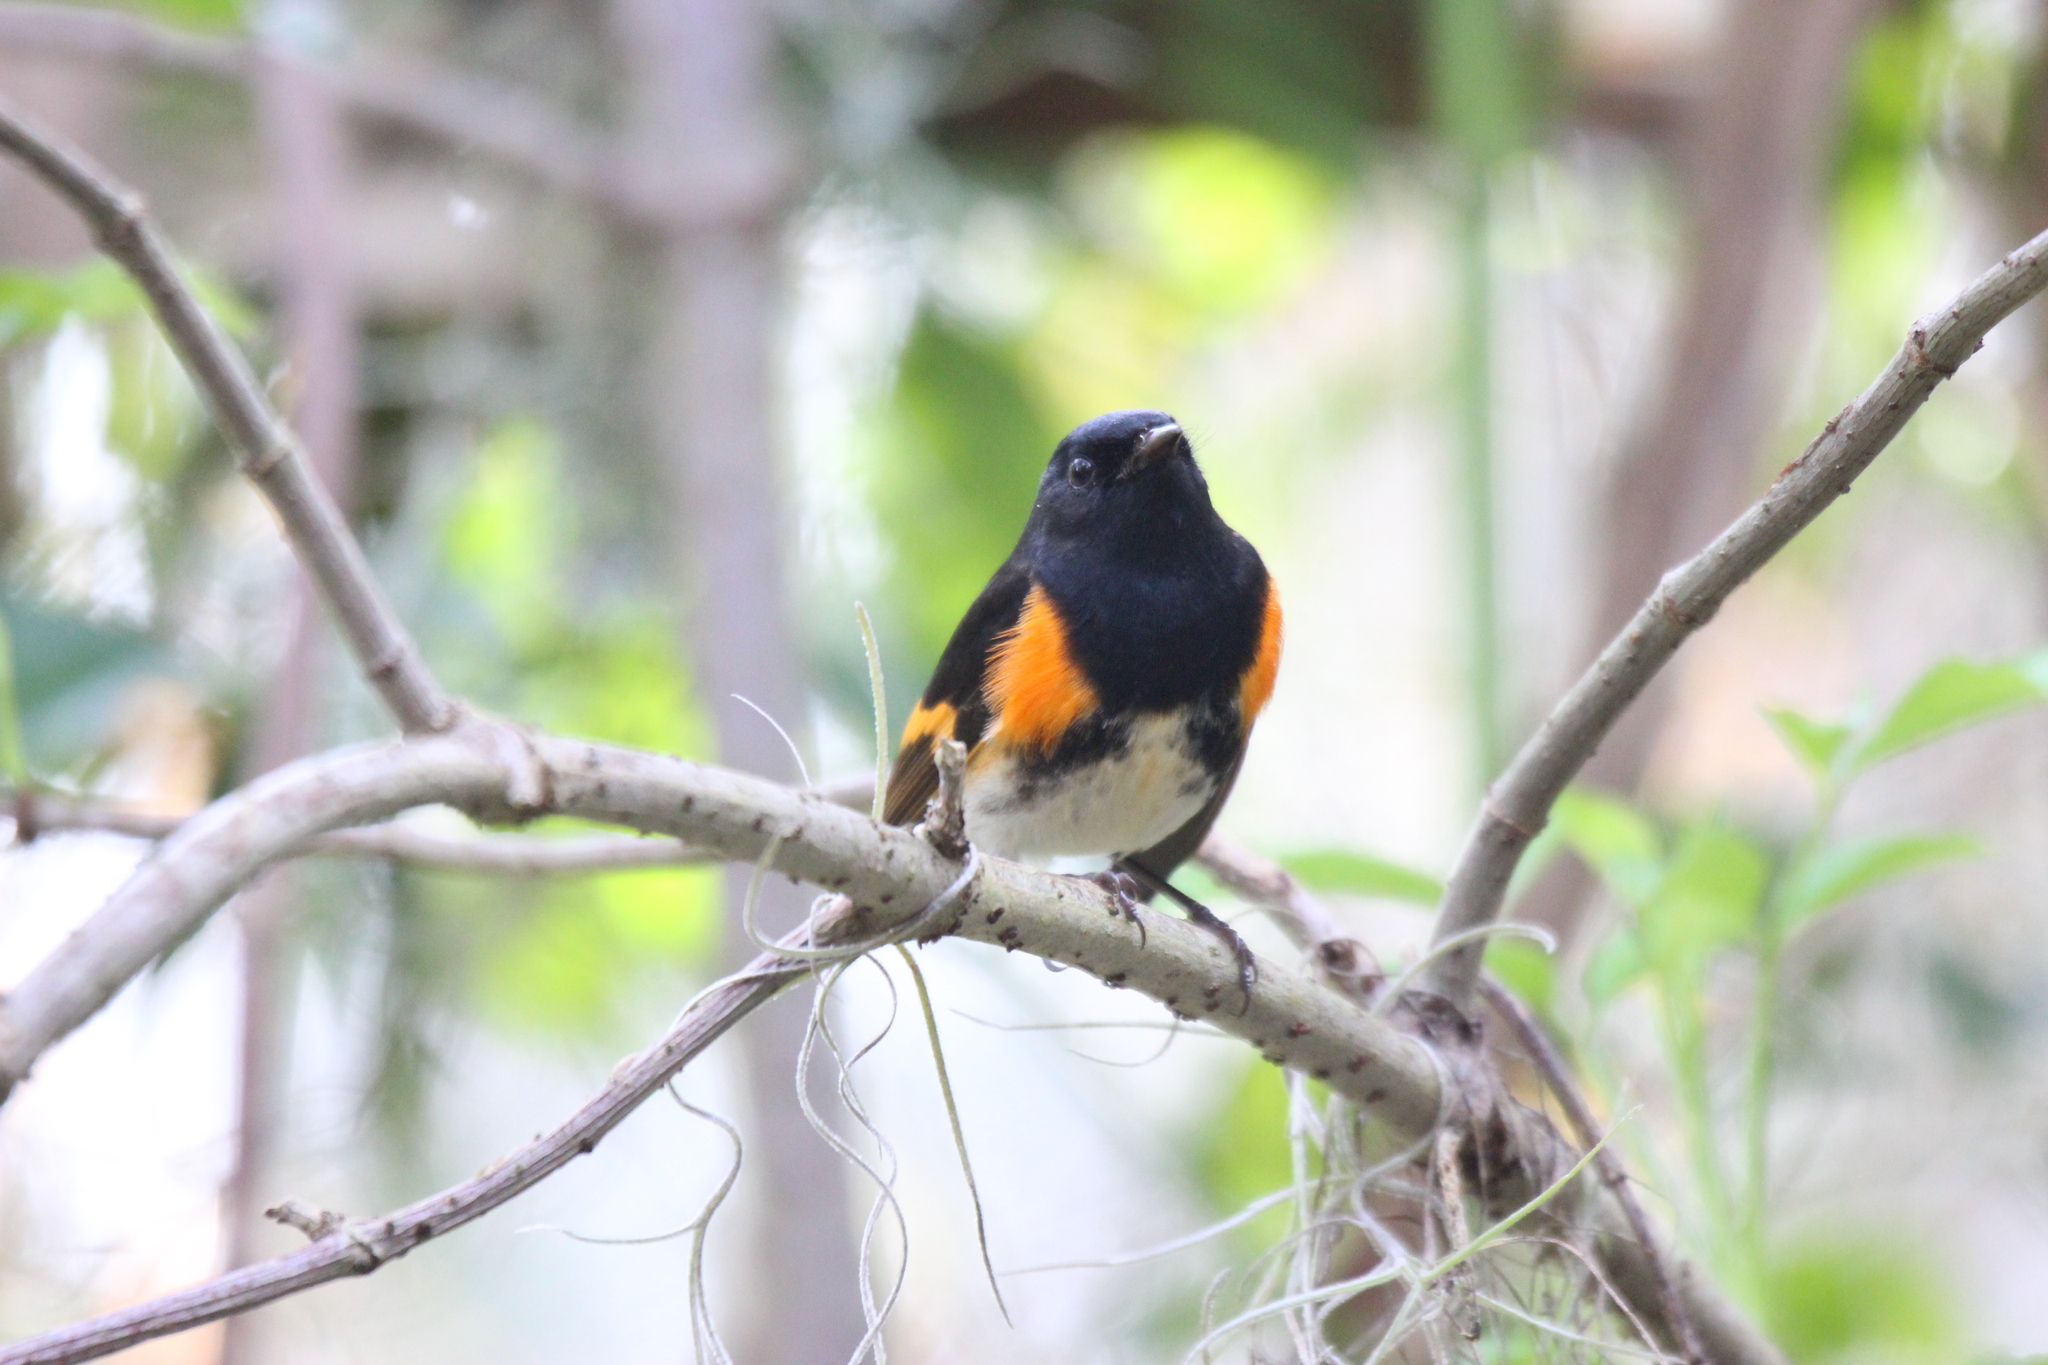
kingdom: Animalia
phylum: Chordata
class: Aves
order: Passeriformes
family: Parulidae
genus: Setophaga
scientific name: Setophaga ruticilla
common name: American redstart
